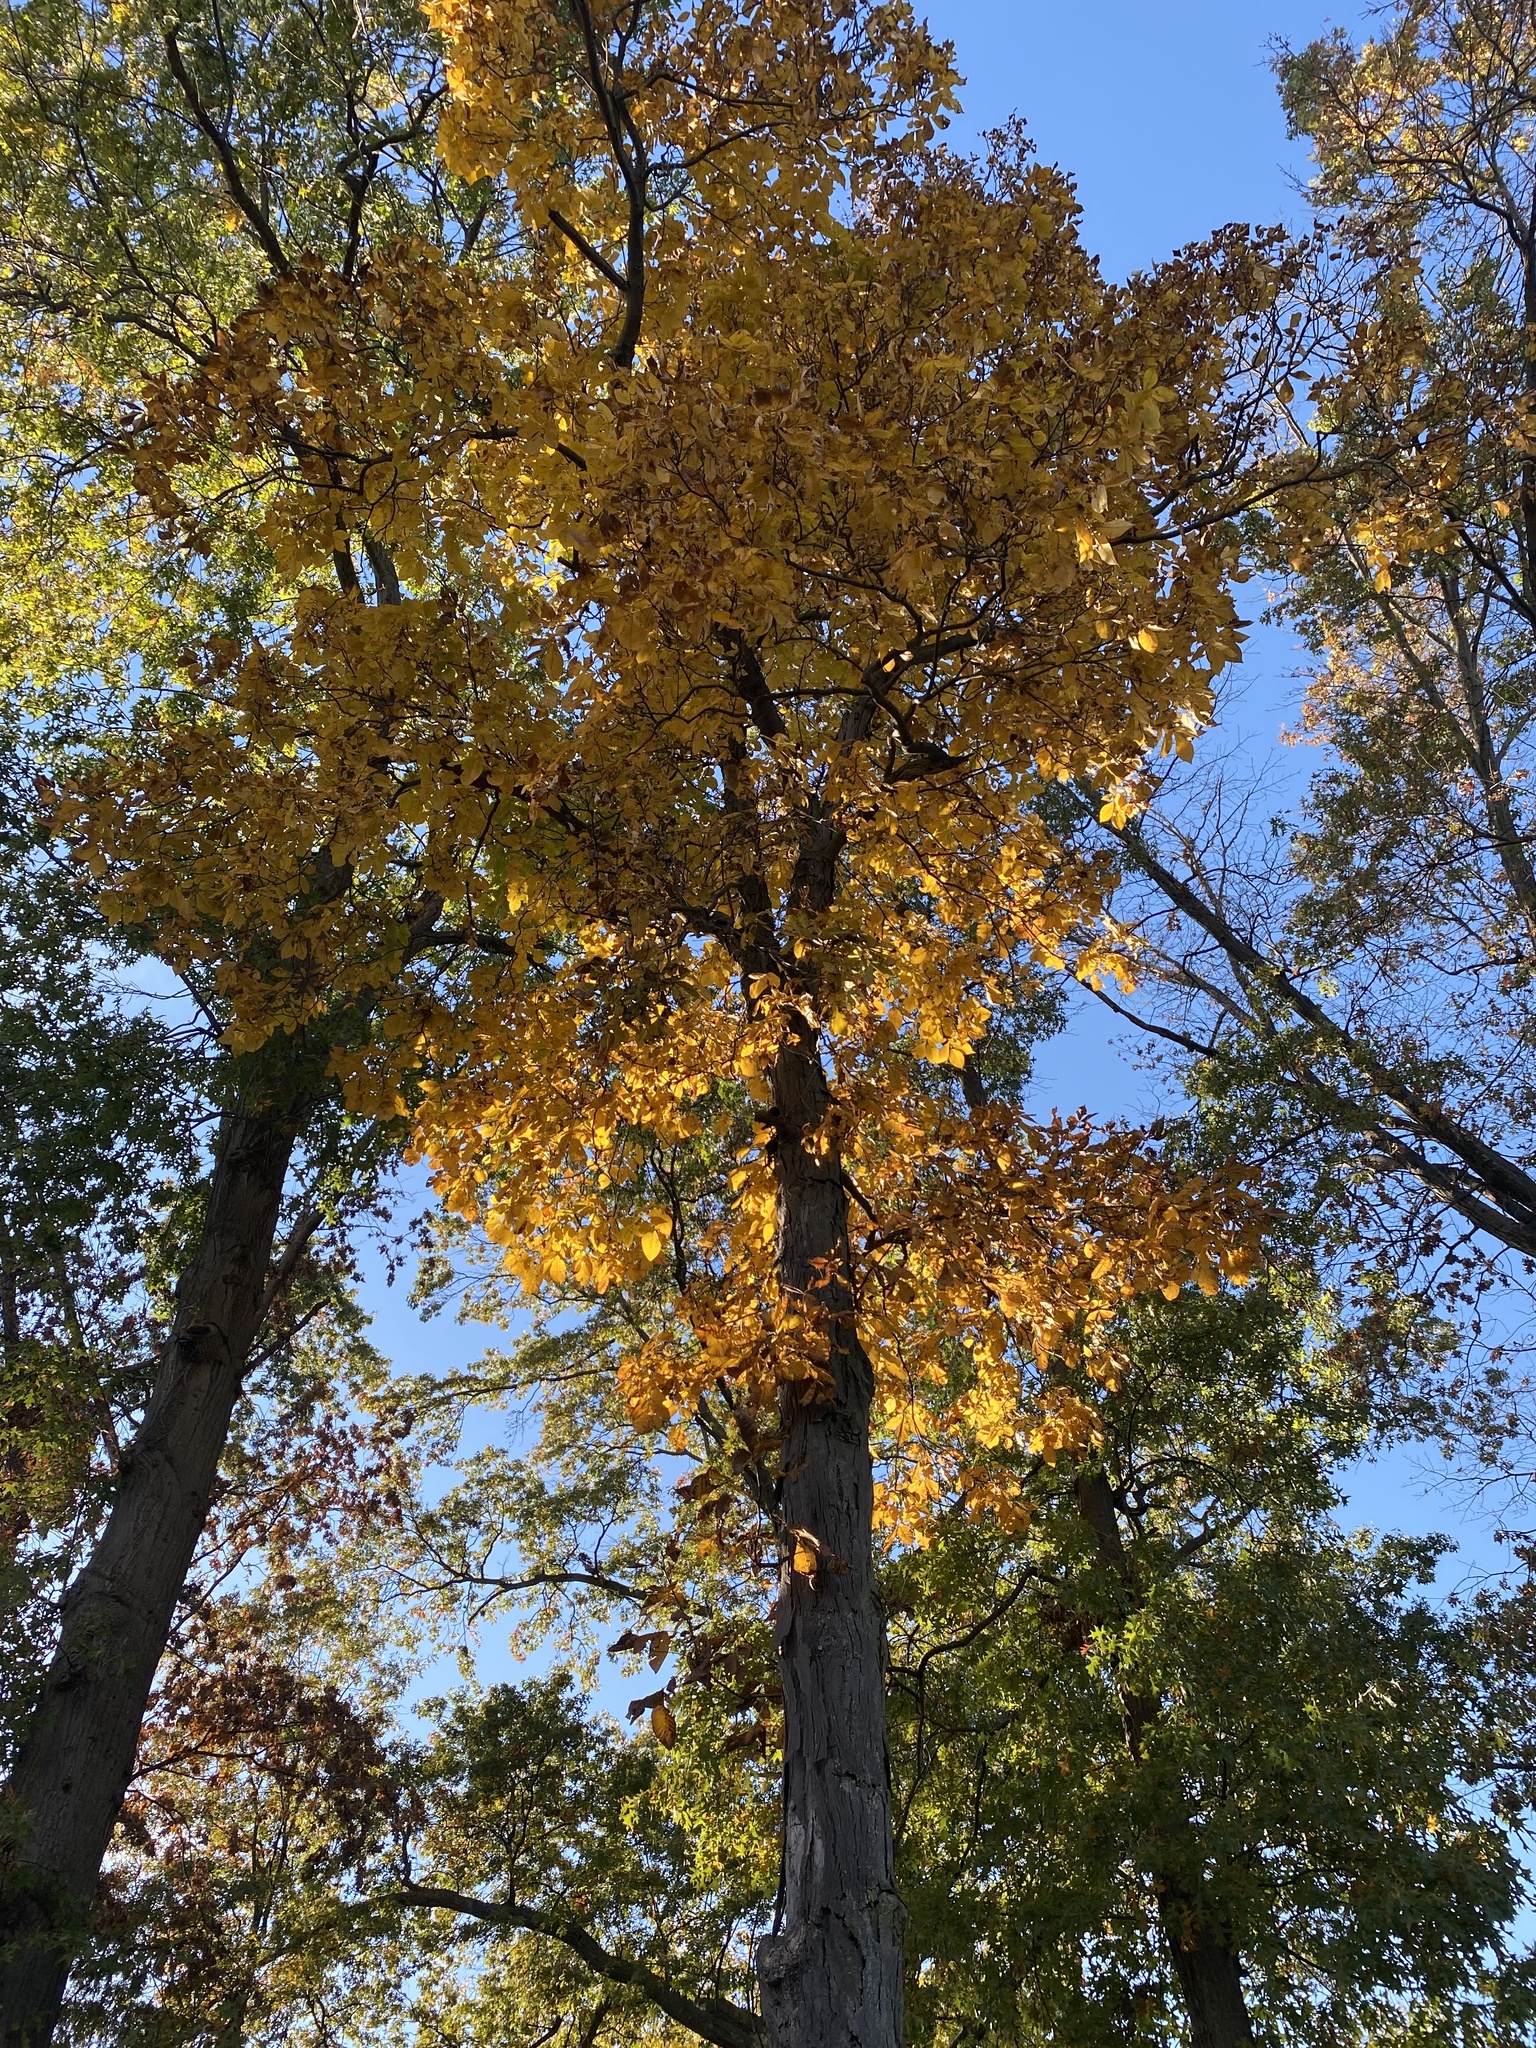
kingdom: Plantae
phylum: Tracheophyta
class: Magnoliopsida
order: Fagales
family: Juglandaceae
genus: Carya
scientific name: Carya ovata
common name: Shagbark hickory
